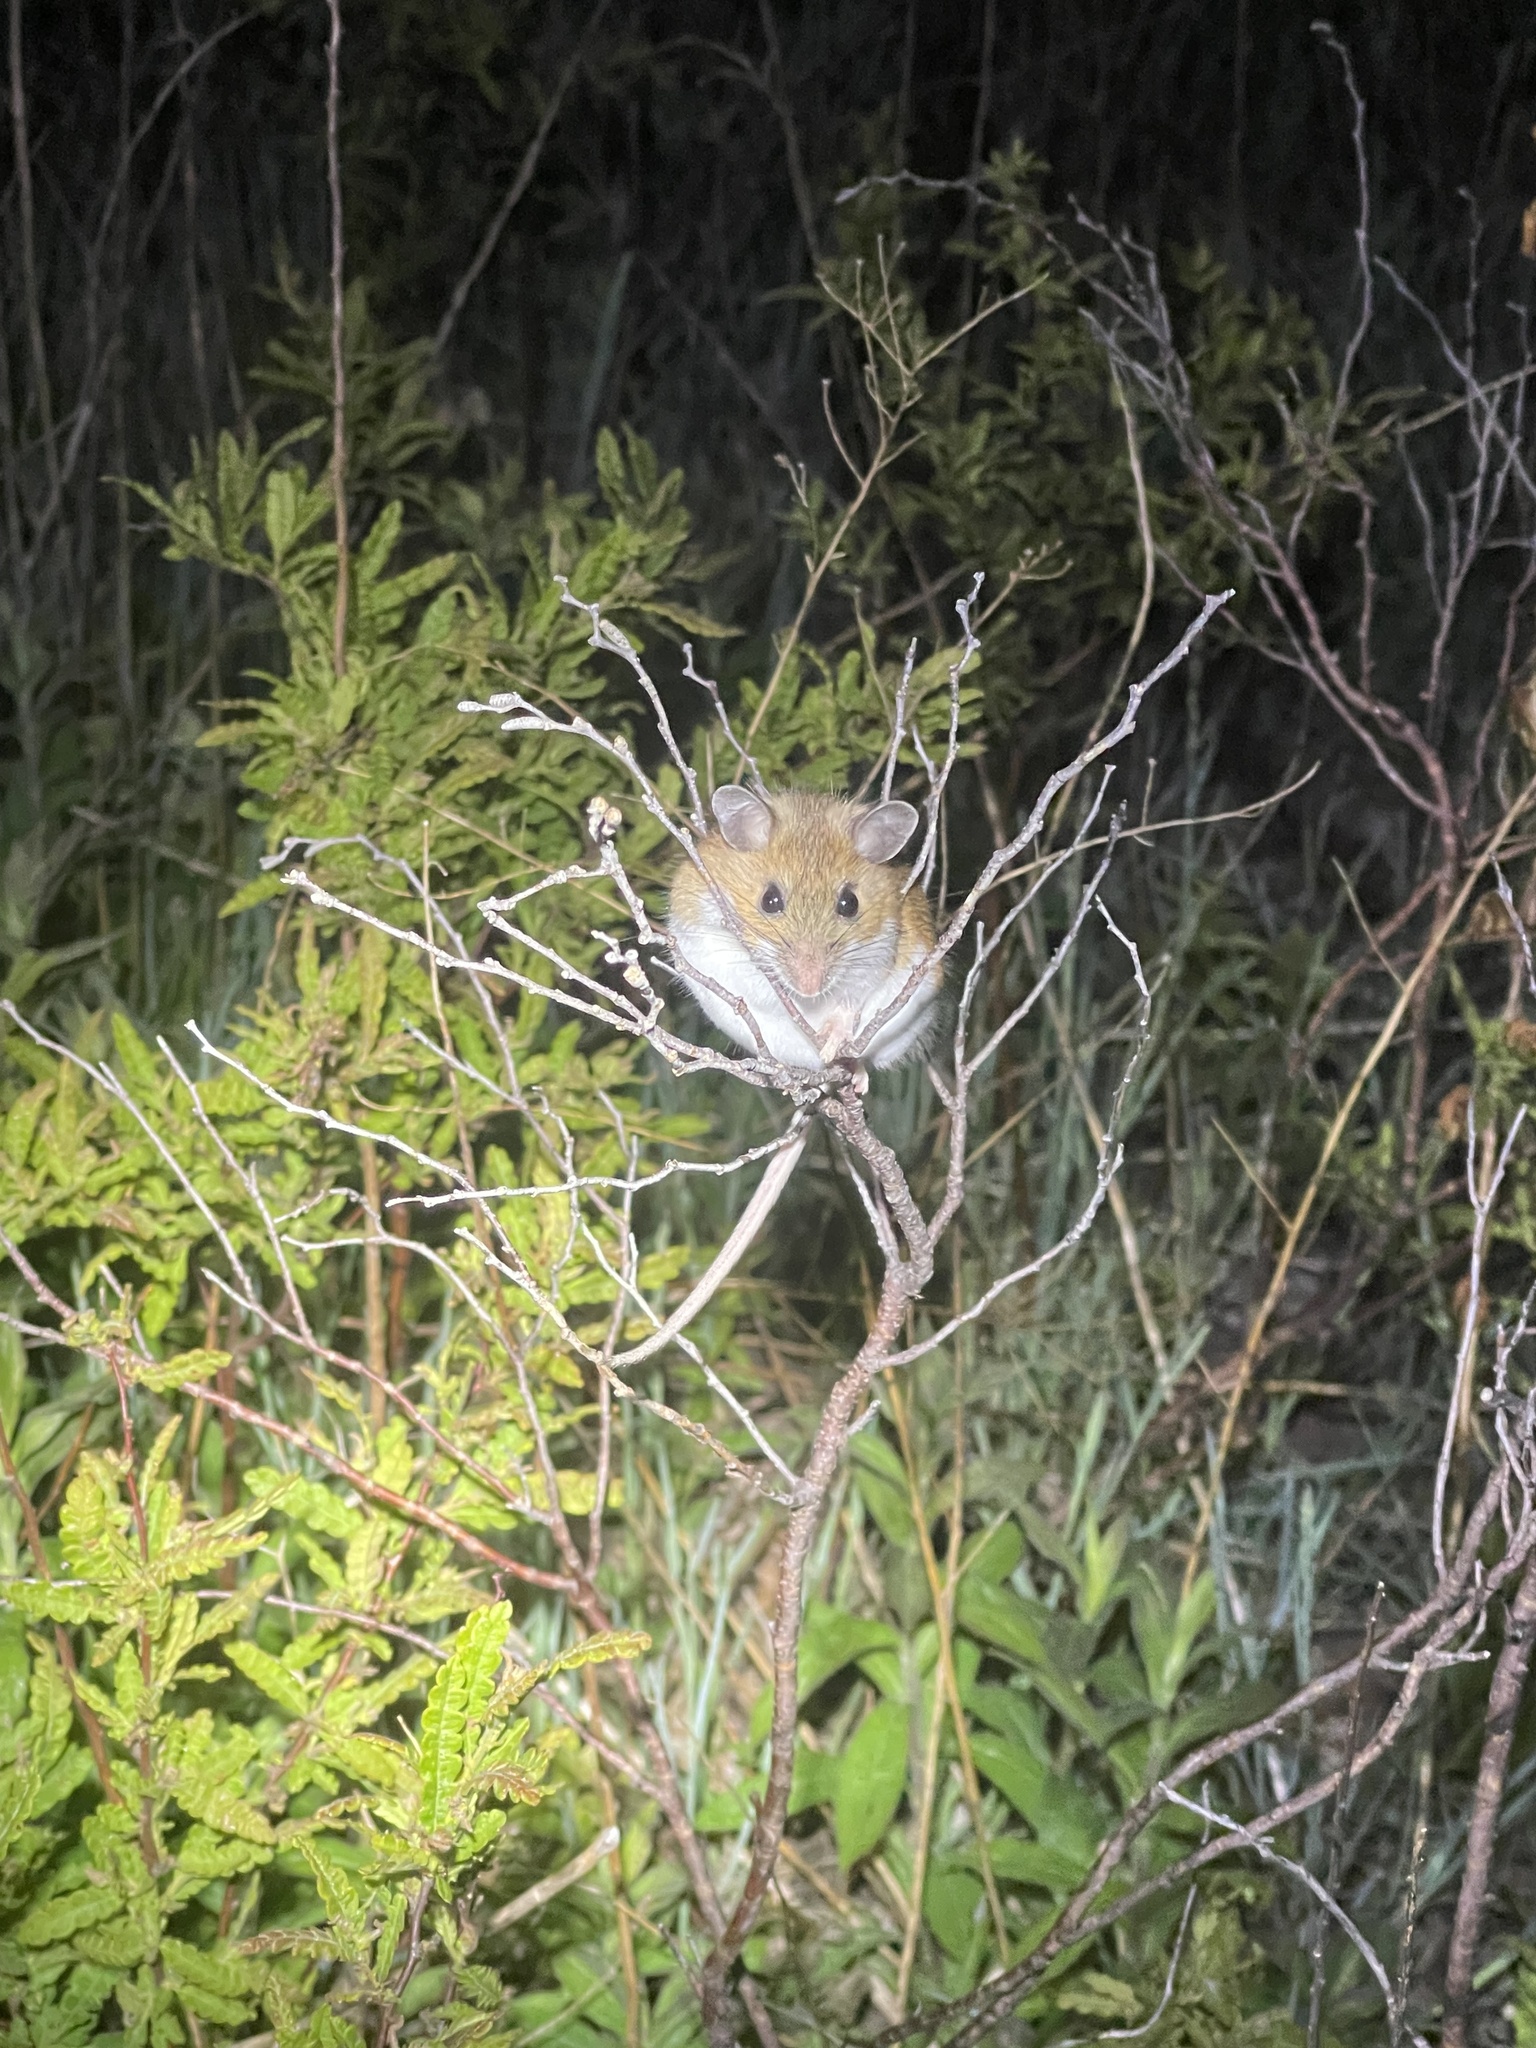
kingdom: Animalia
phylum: Chordata
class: Mammalia
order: Rodentia
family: Cricetidae
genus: Peromyscus
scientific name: Peromyscus leucopus
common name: White-footed deermouse
